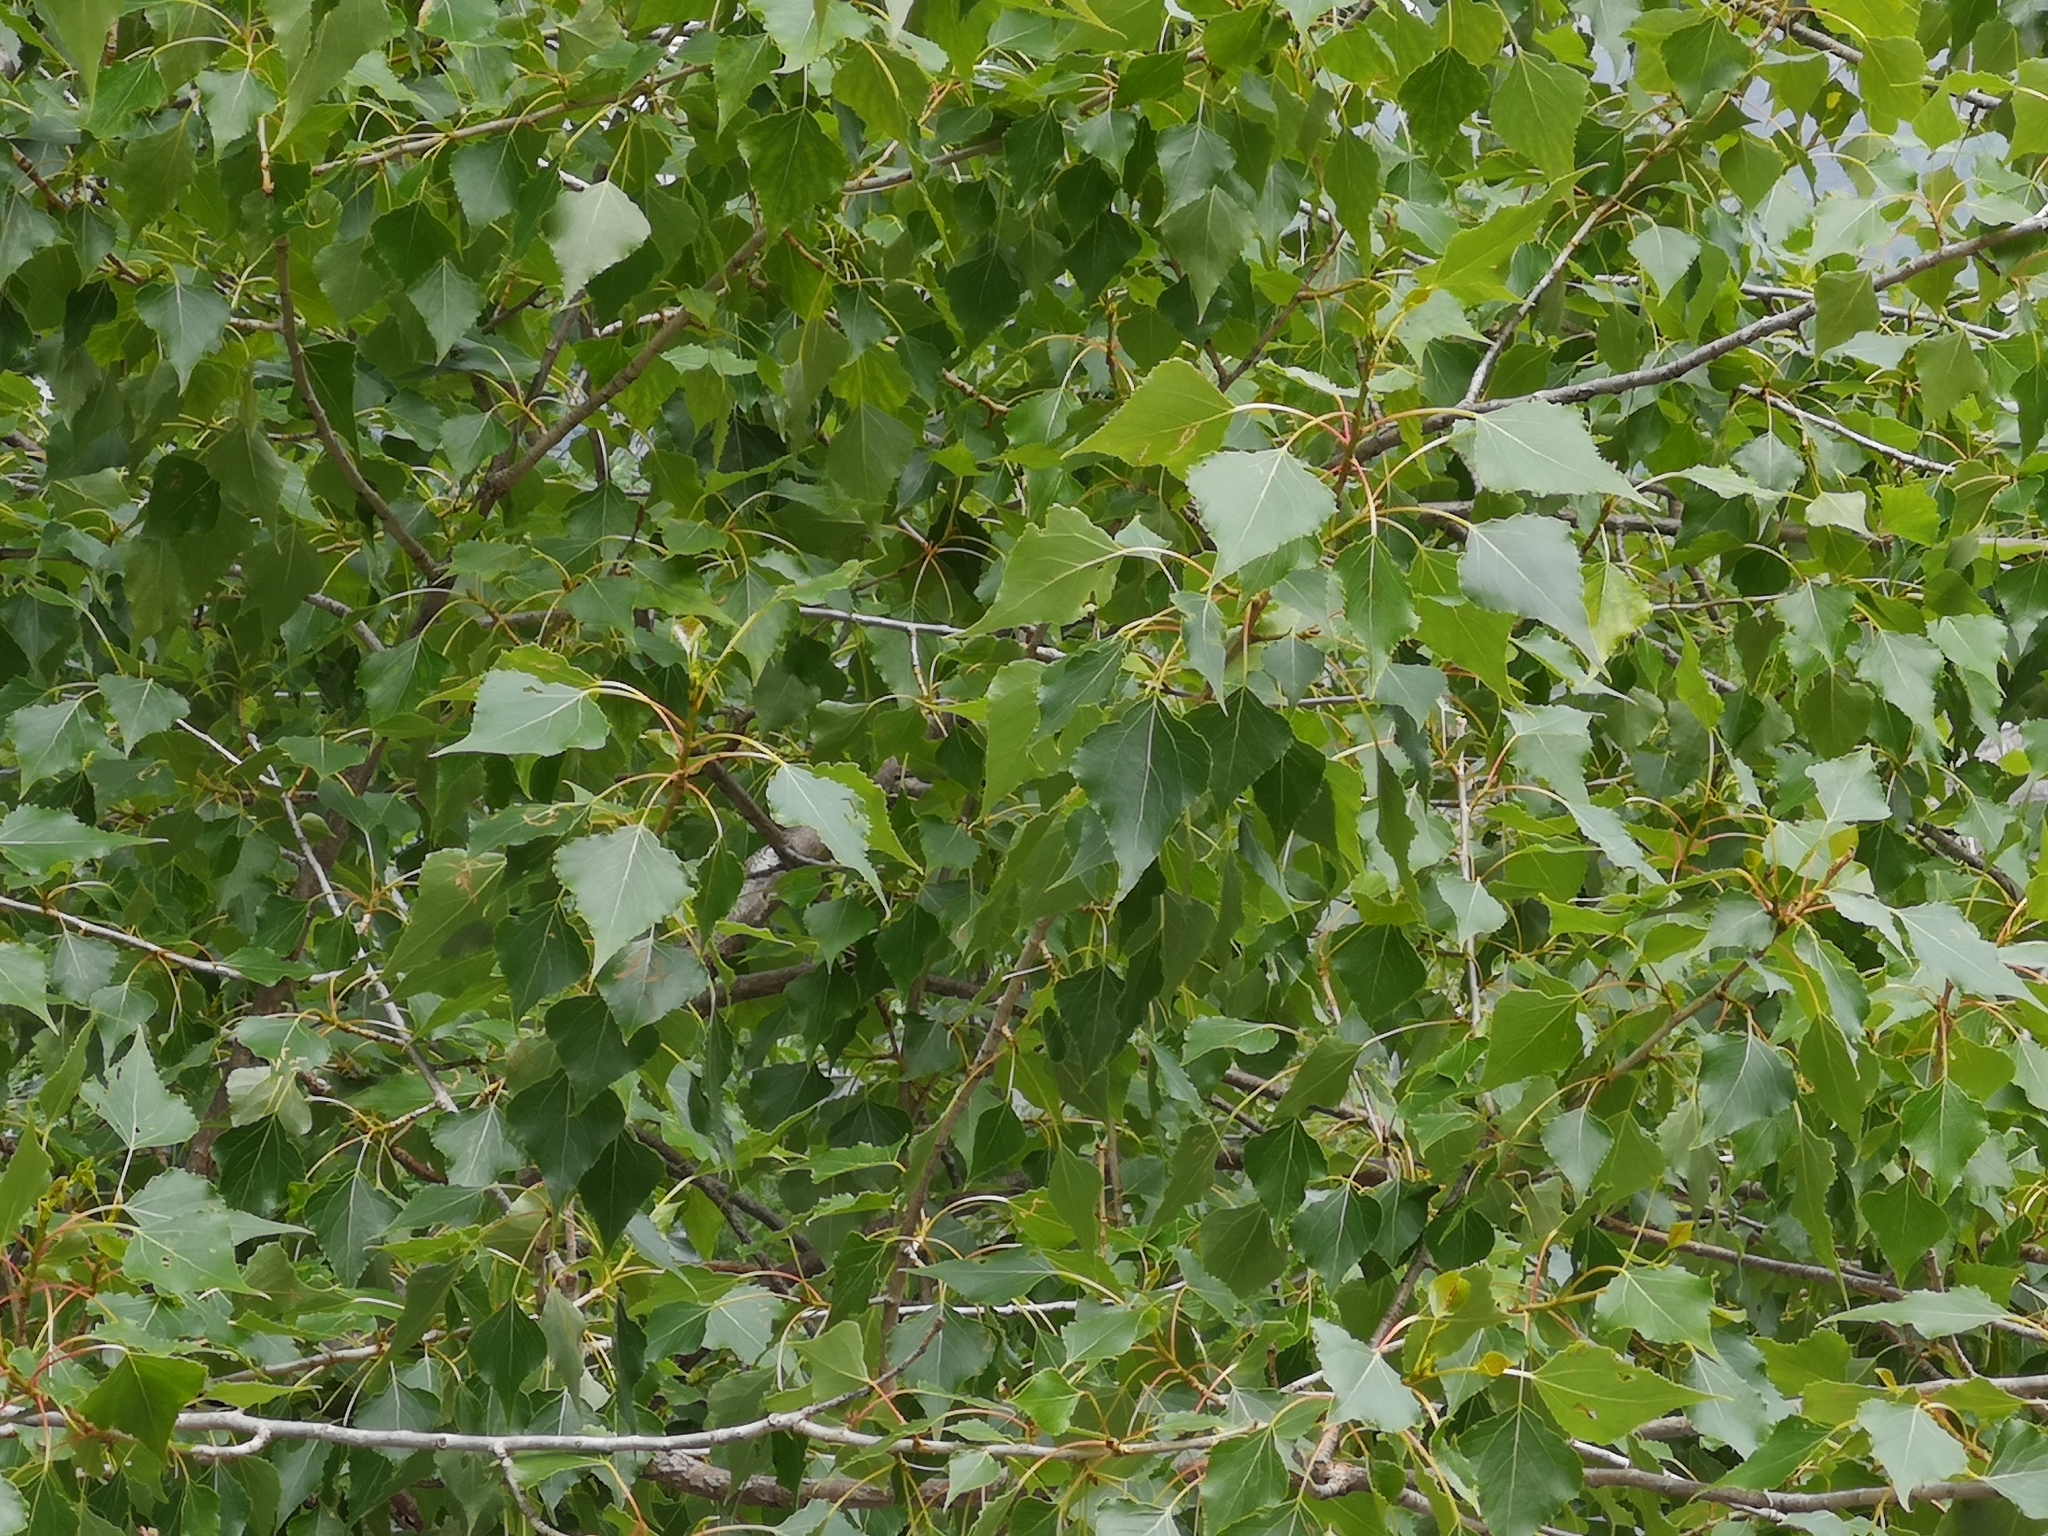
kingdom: Plantae
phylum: Tracheophyta
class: Magnoliopsida
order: Malpighiales
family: Salicaceae
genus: Populus
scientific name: Populus nigra
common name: Black poplar
